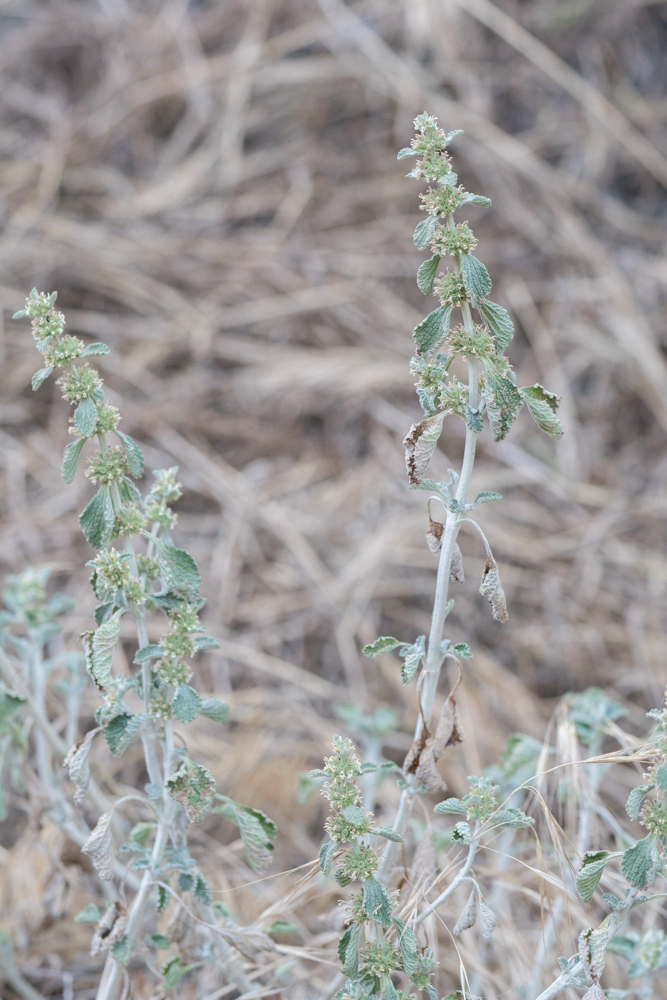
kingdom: Plantae
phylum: Tracheophyta
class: Magnoliopsida
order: Lamiales
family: Lamiaceae
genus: Marrubium
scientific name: Marrubium vulgare
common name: Horehound
